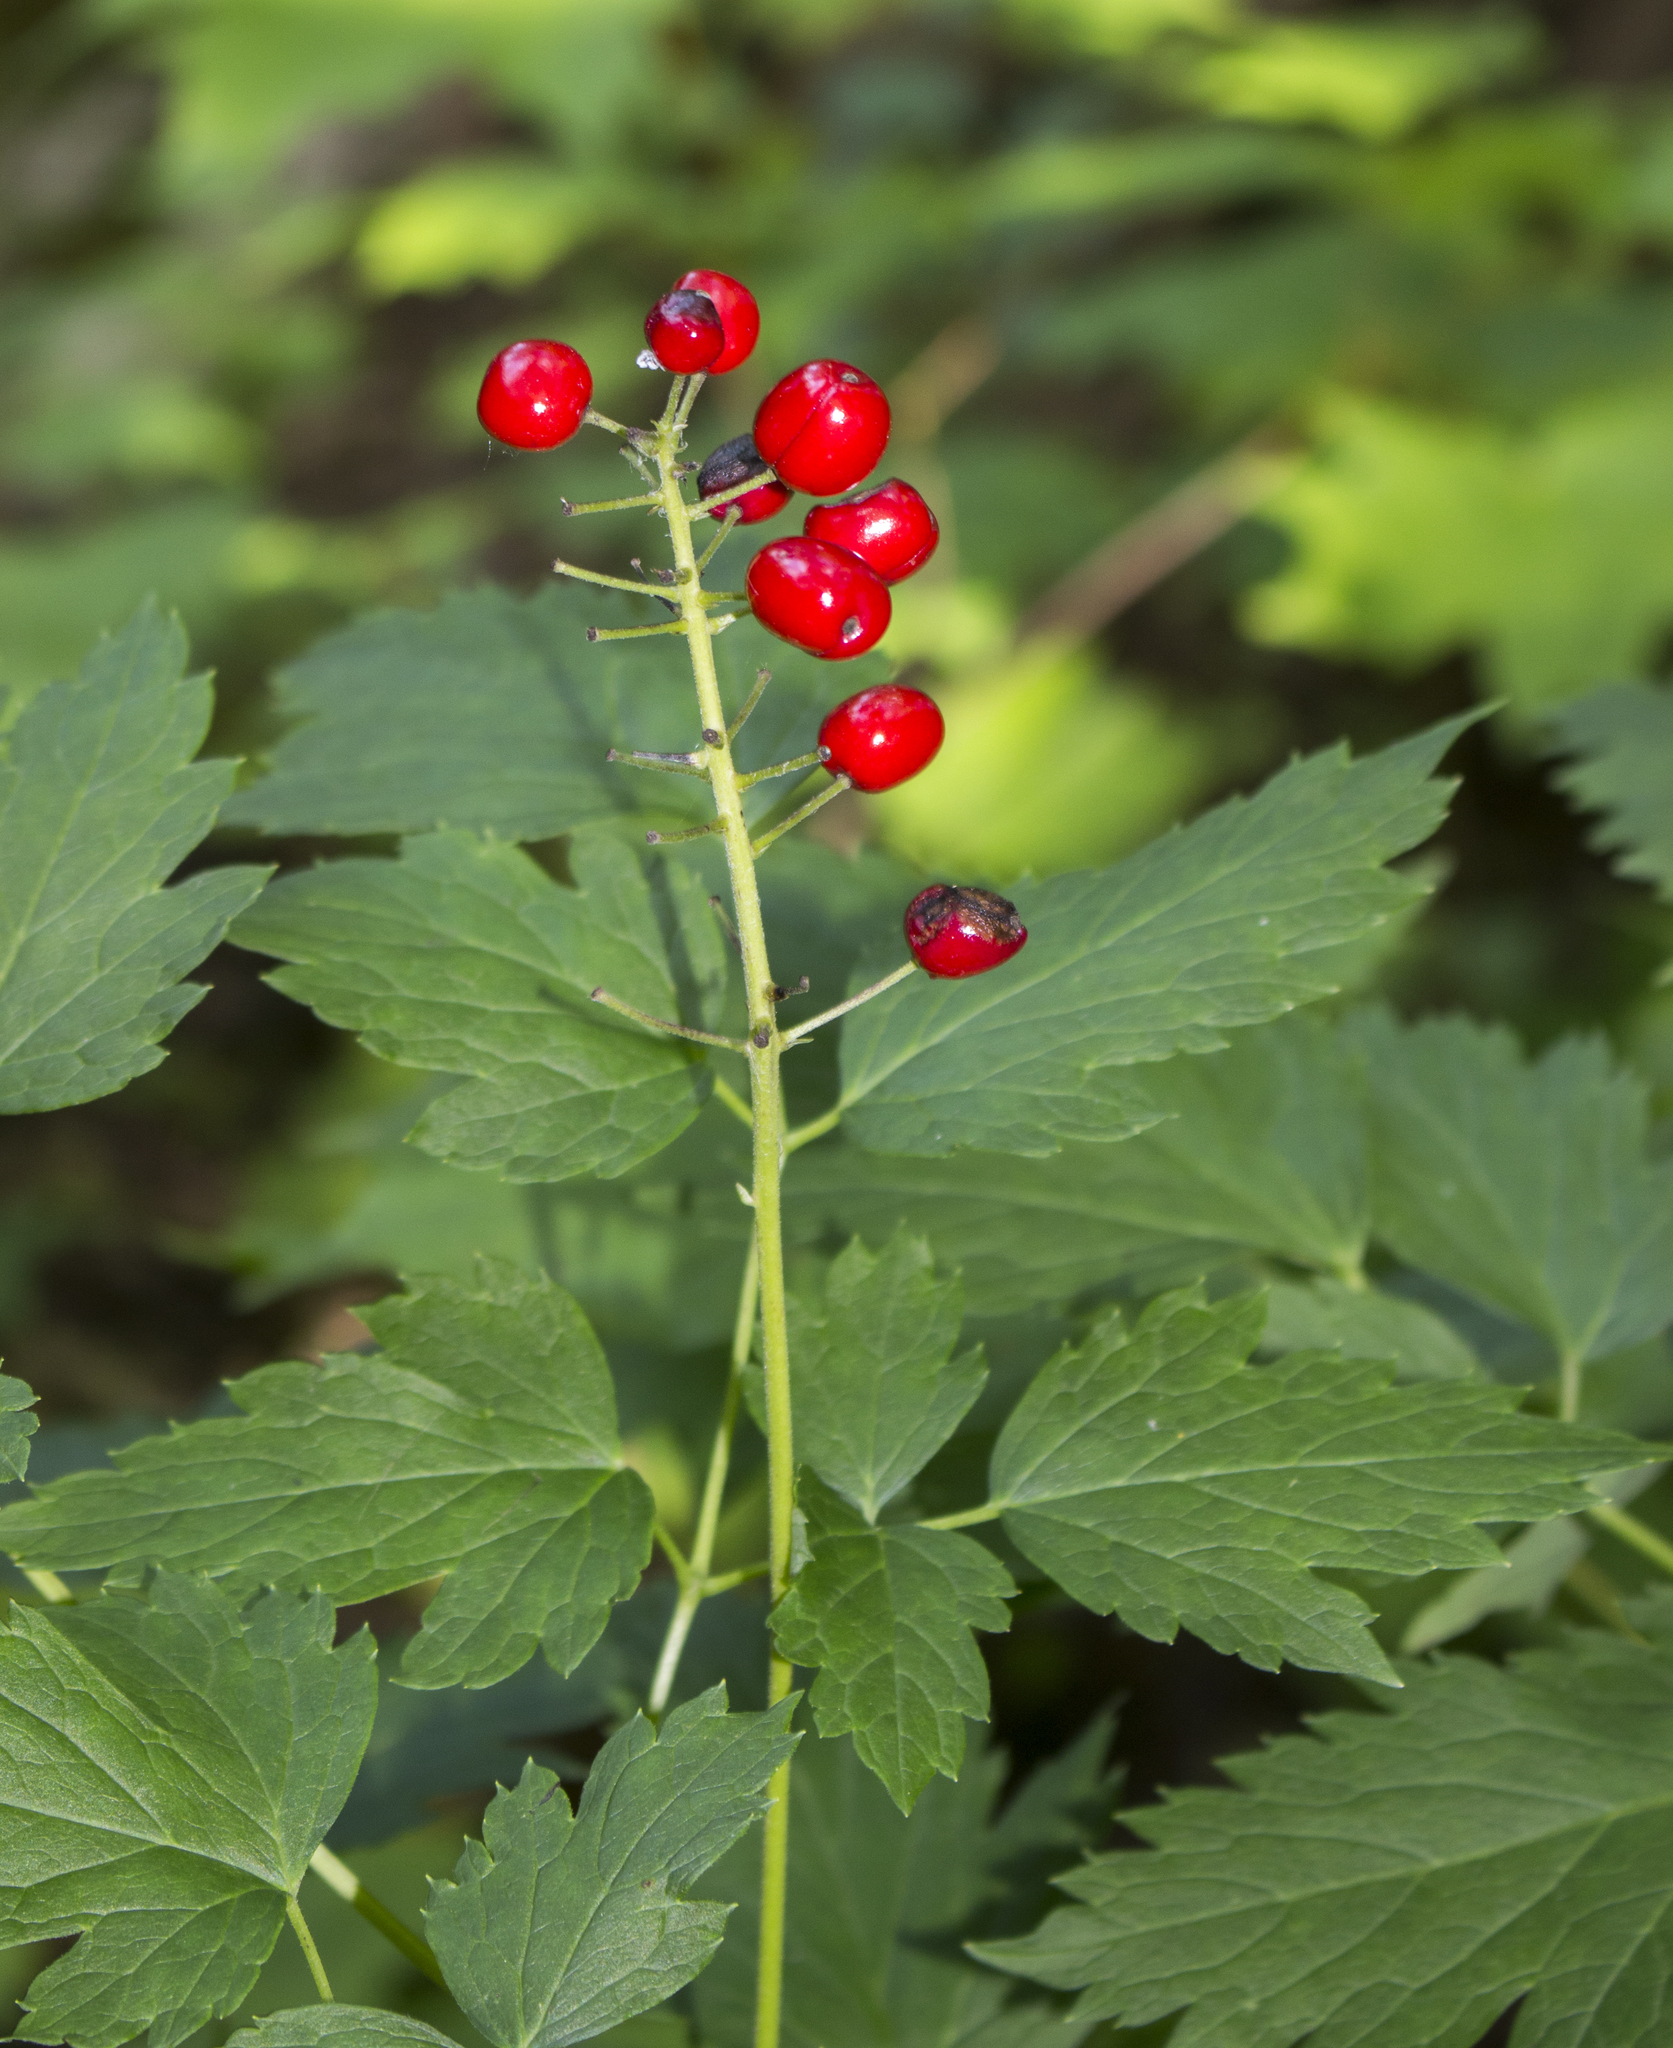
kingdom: Plantae
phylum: Tracheophyta
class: Magnoliopsida
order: Ranunculales
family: Ranunculaceae
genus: Actaea
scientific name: Actaea rubra
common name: Red baneberry
